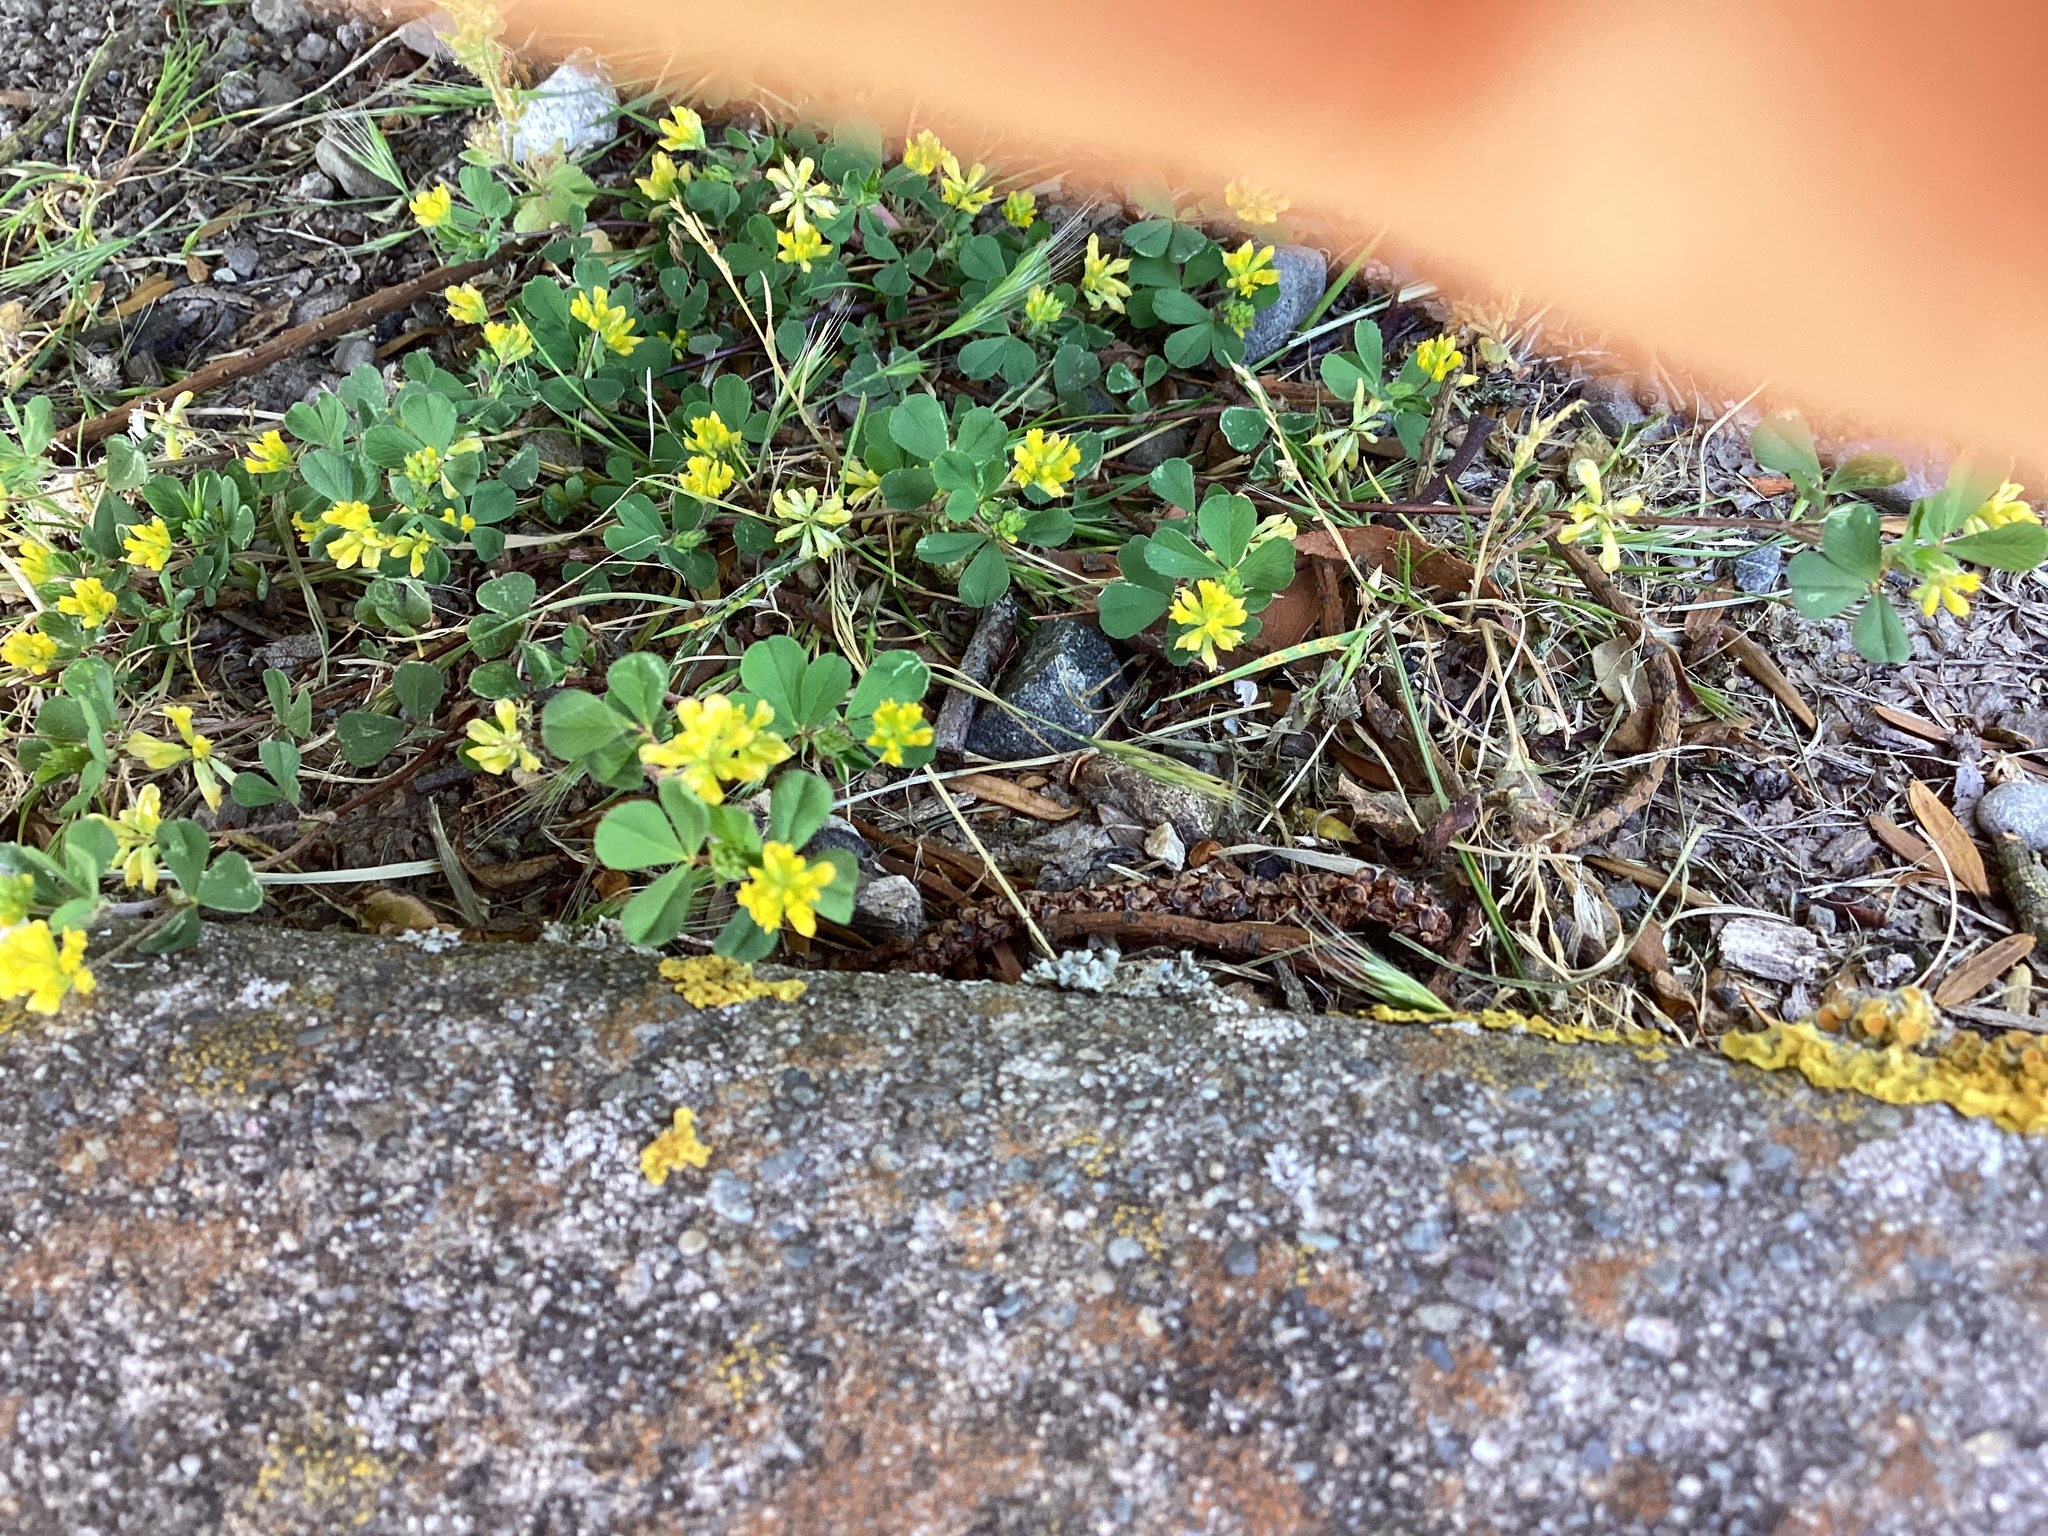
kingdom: Plantae
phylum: Tracheophyta
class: Magnoliopsida
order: Fabales
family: Fabaceae
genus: Trifolium
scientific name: Trifolium dubium
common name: Suckling clover
